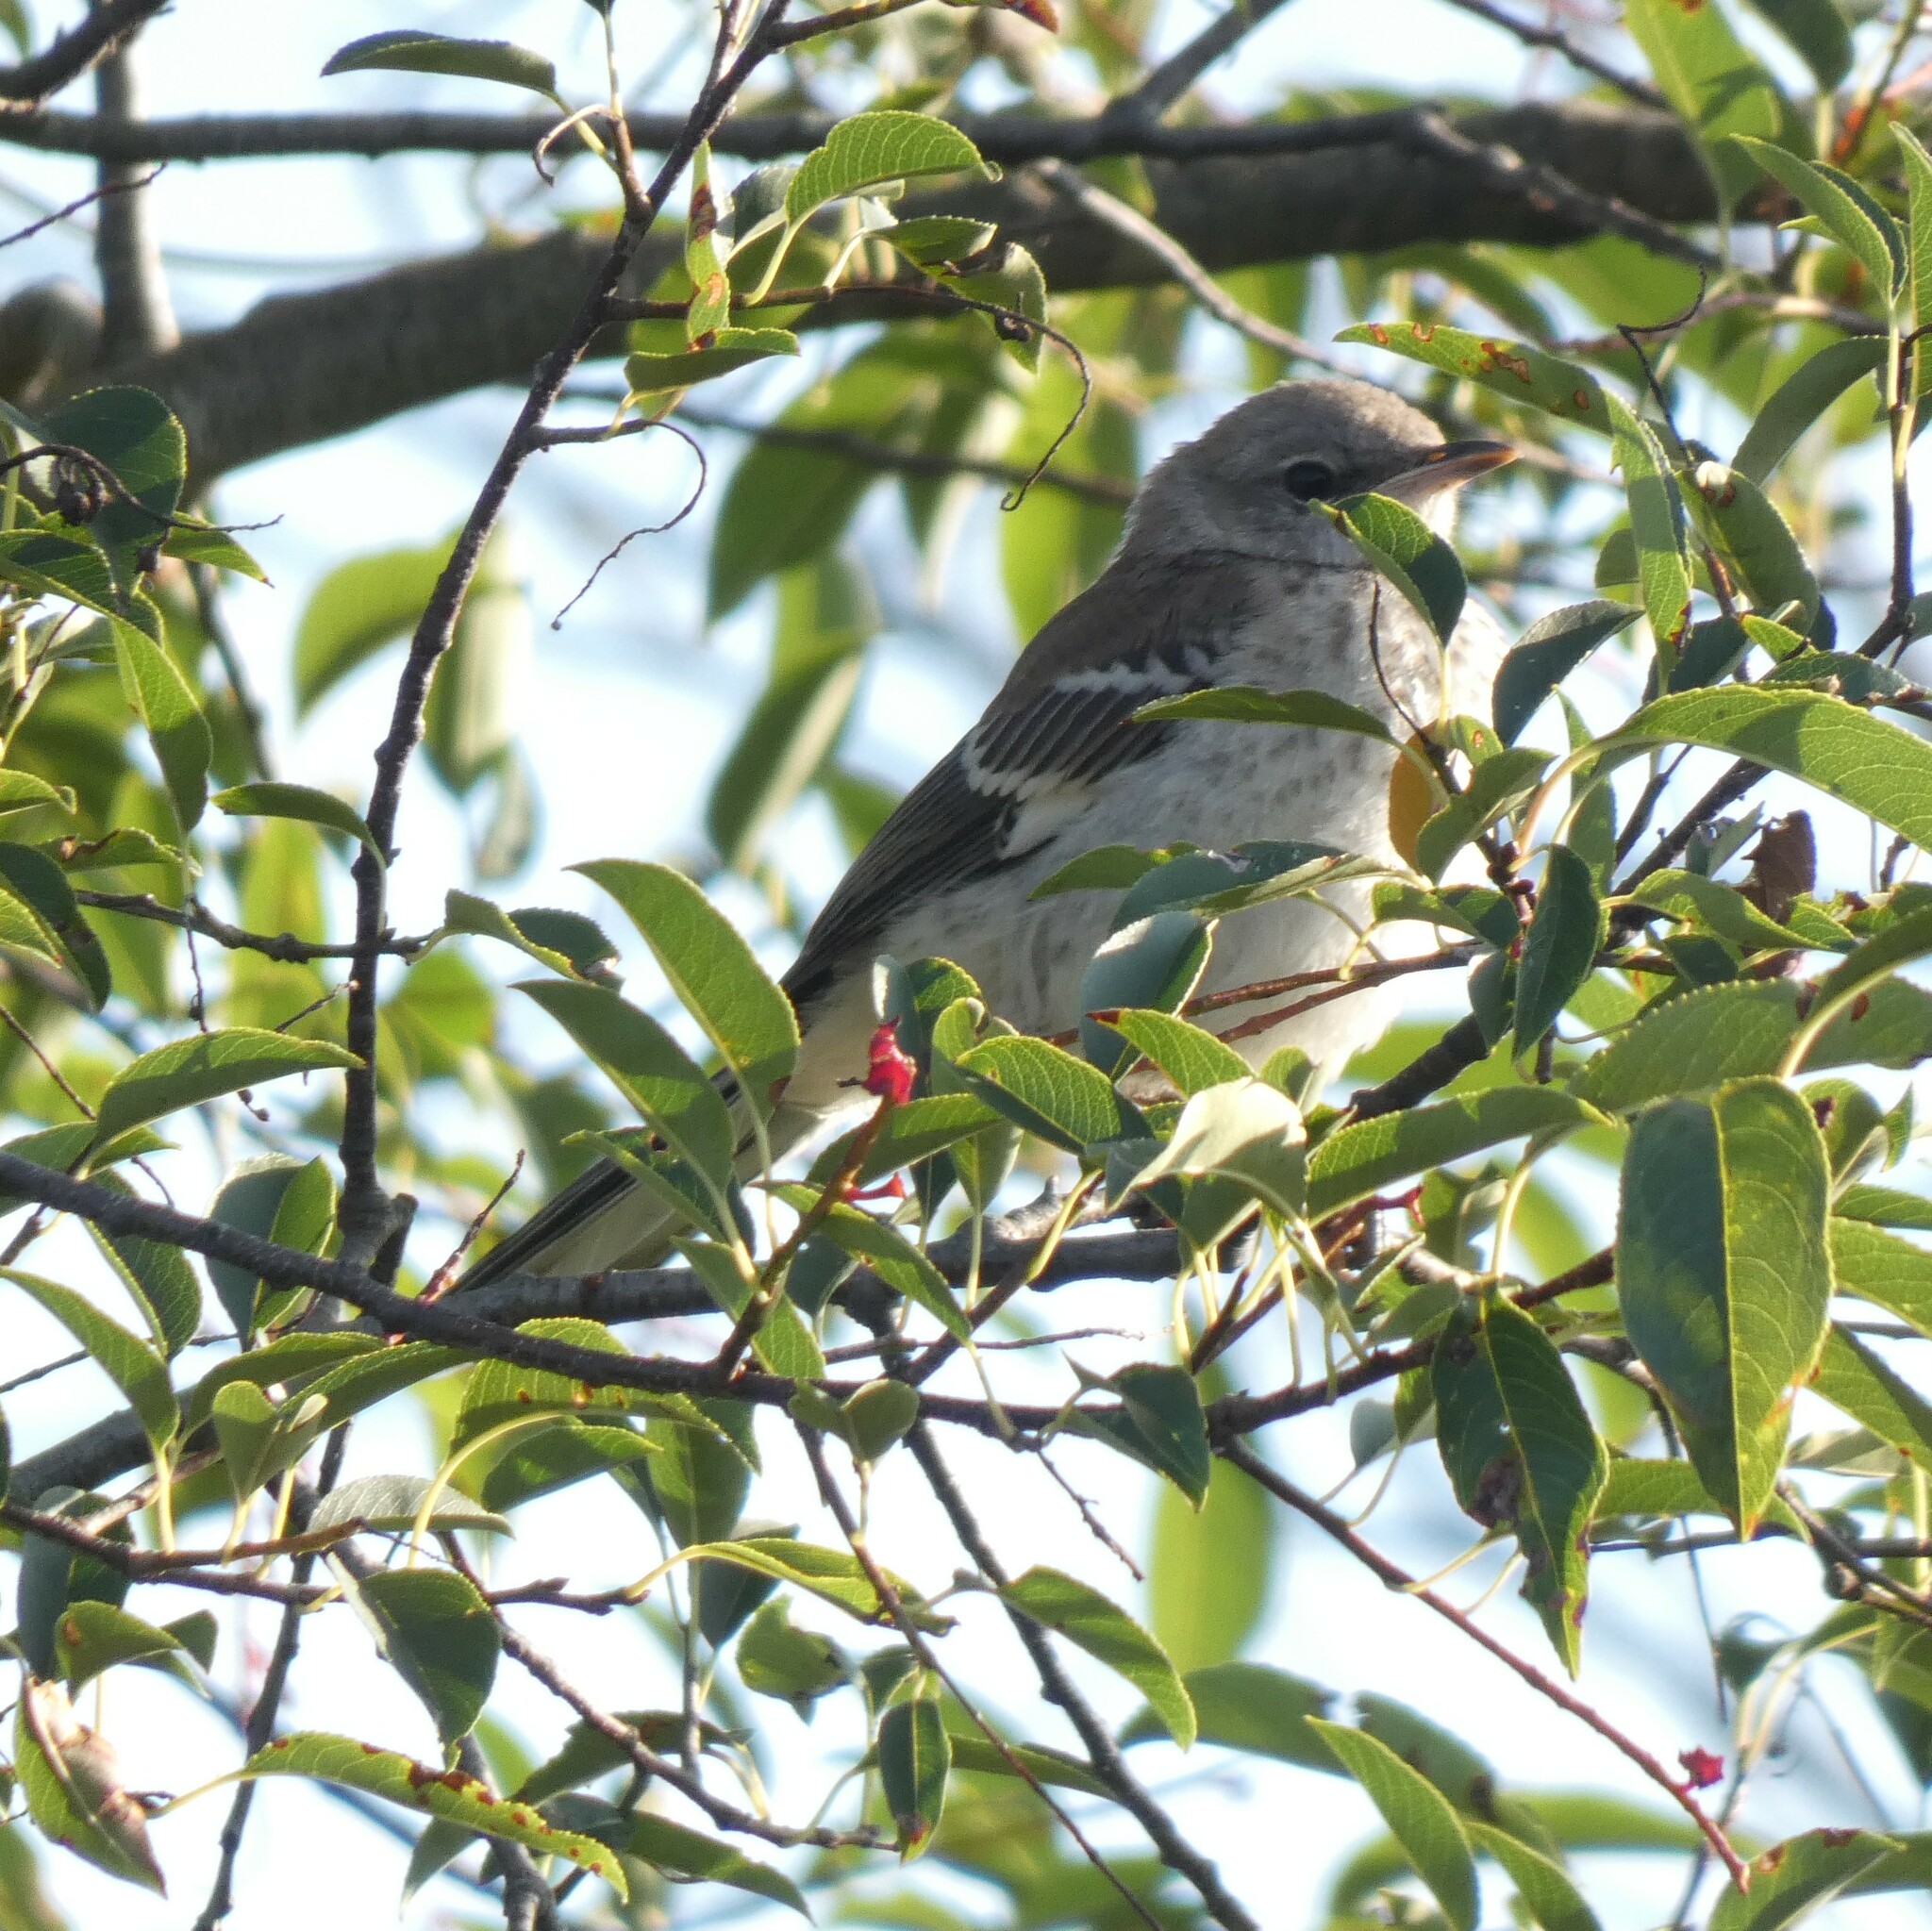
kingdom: Animalia
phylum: Chordata
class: Aves
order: Passeriformes
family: Mimidae
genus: Mimus
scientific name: Mimus polyglottos
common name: Northern mockingbird
